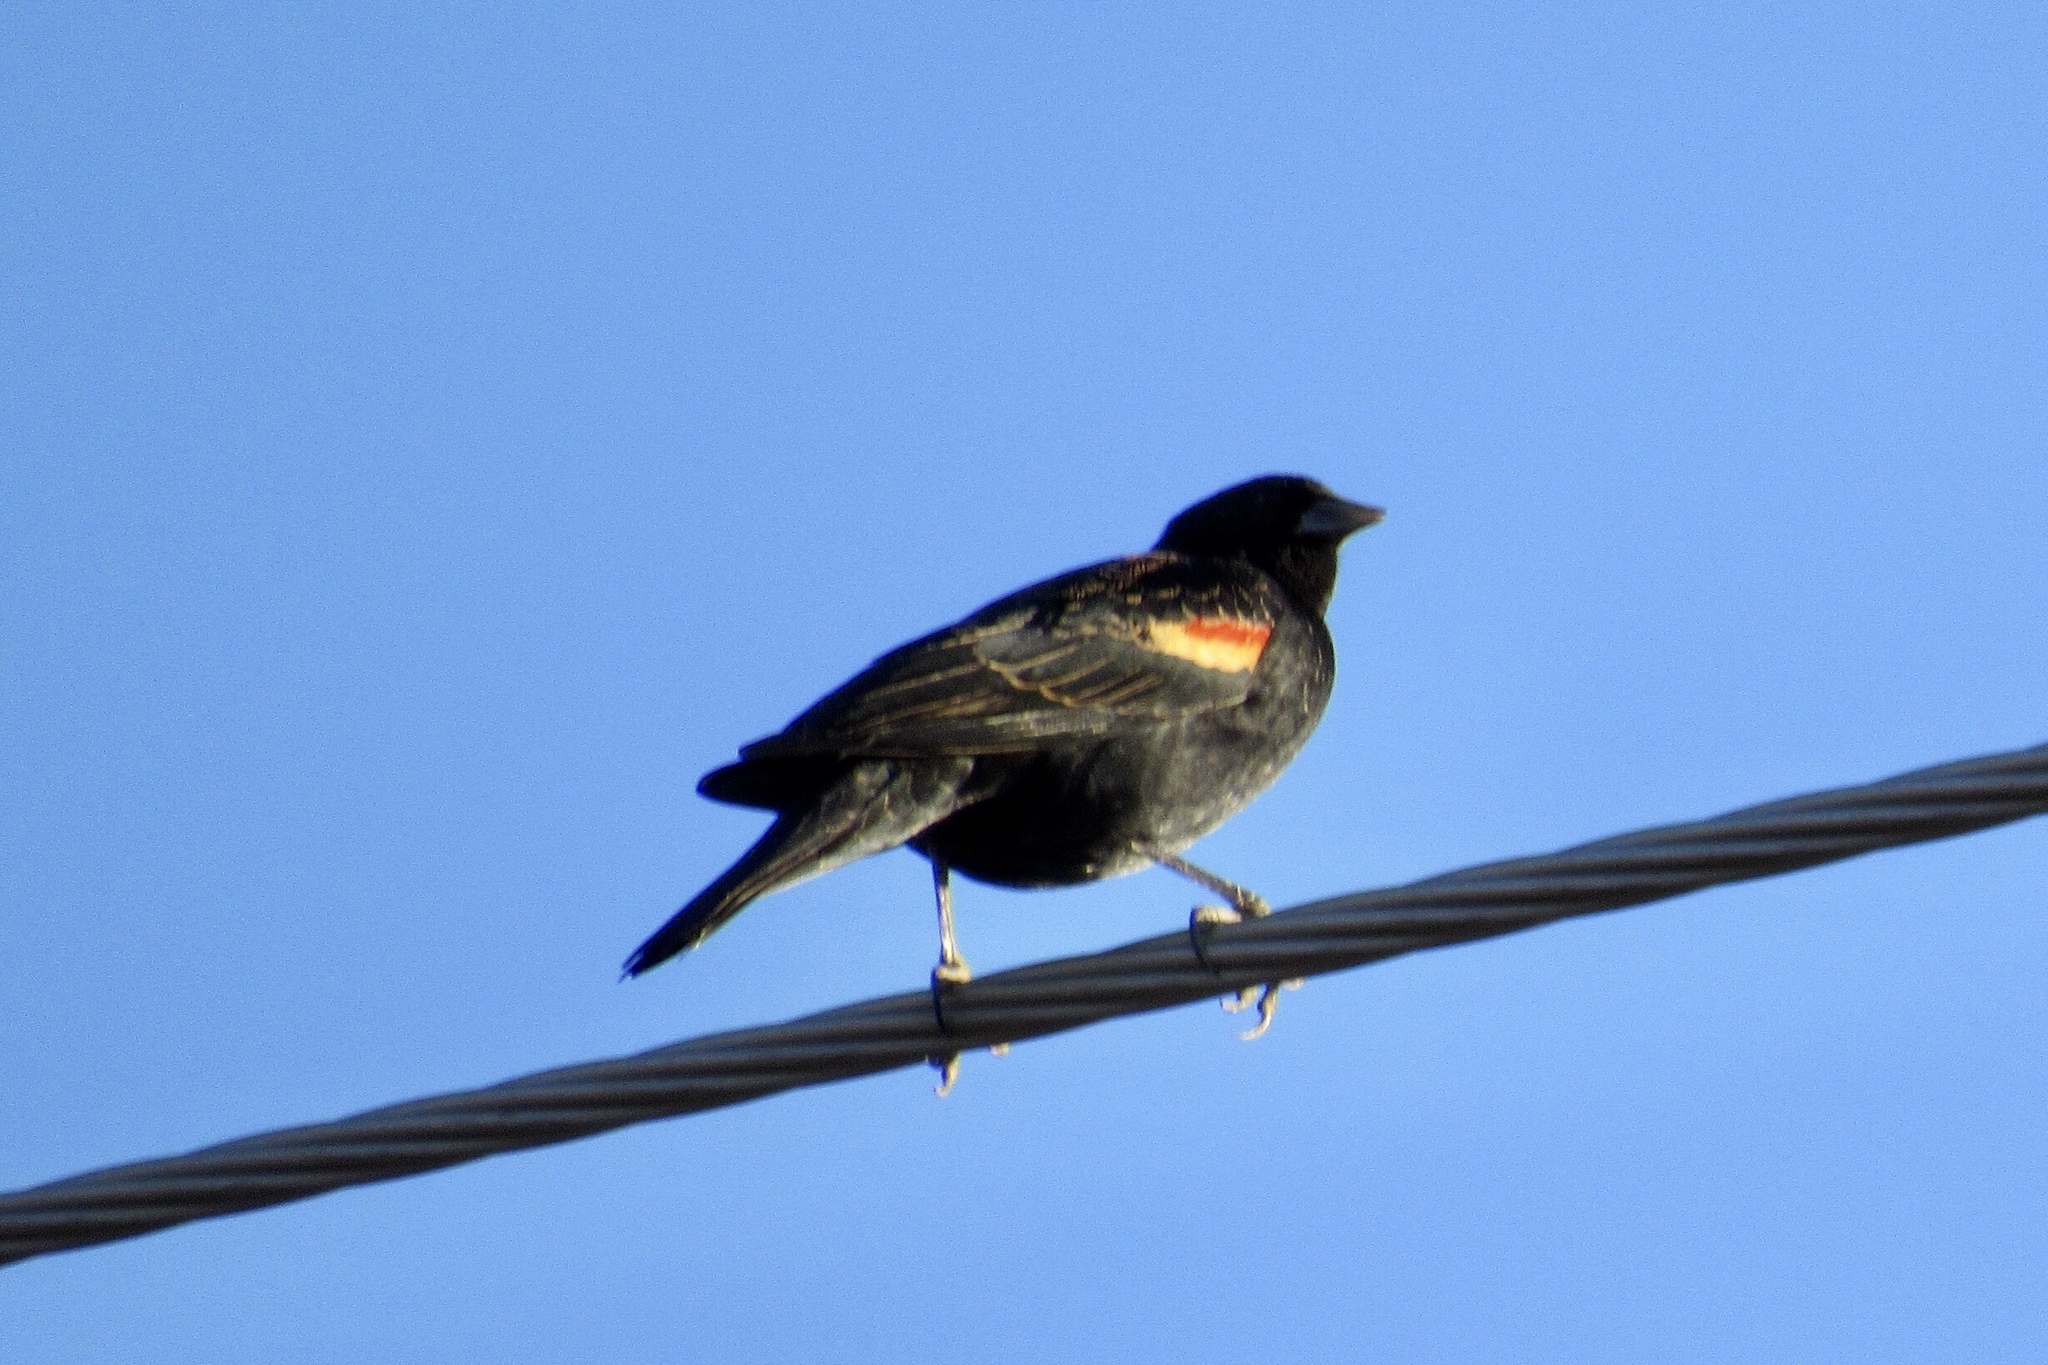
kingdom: Animalia
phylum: Chordata
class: Aves
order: Passeriformes
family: Icteridae
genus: Agelaius
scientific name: Agelaius phoeniceus
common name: Red-winged blackbird
